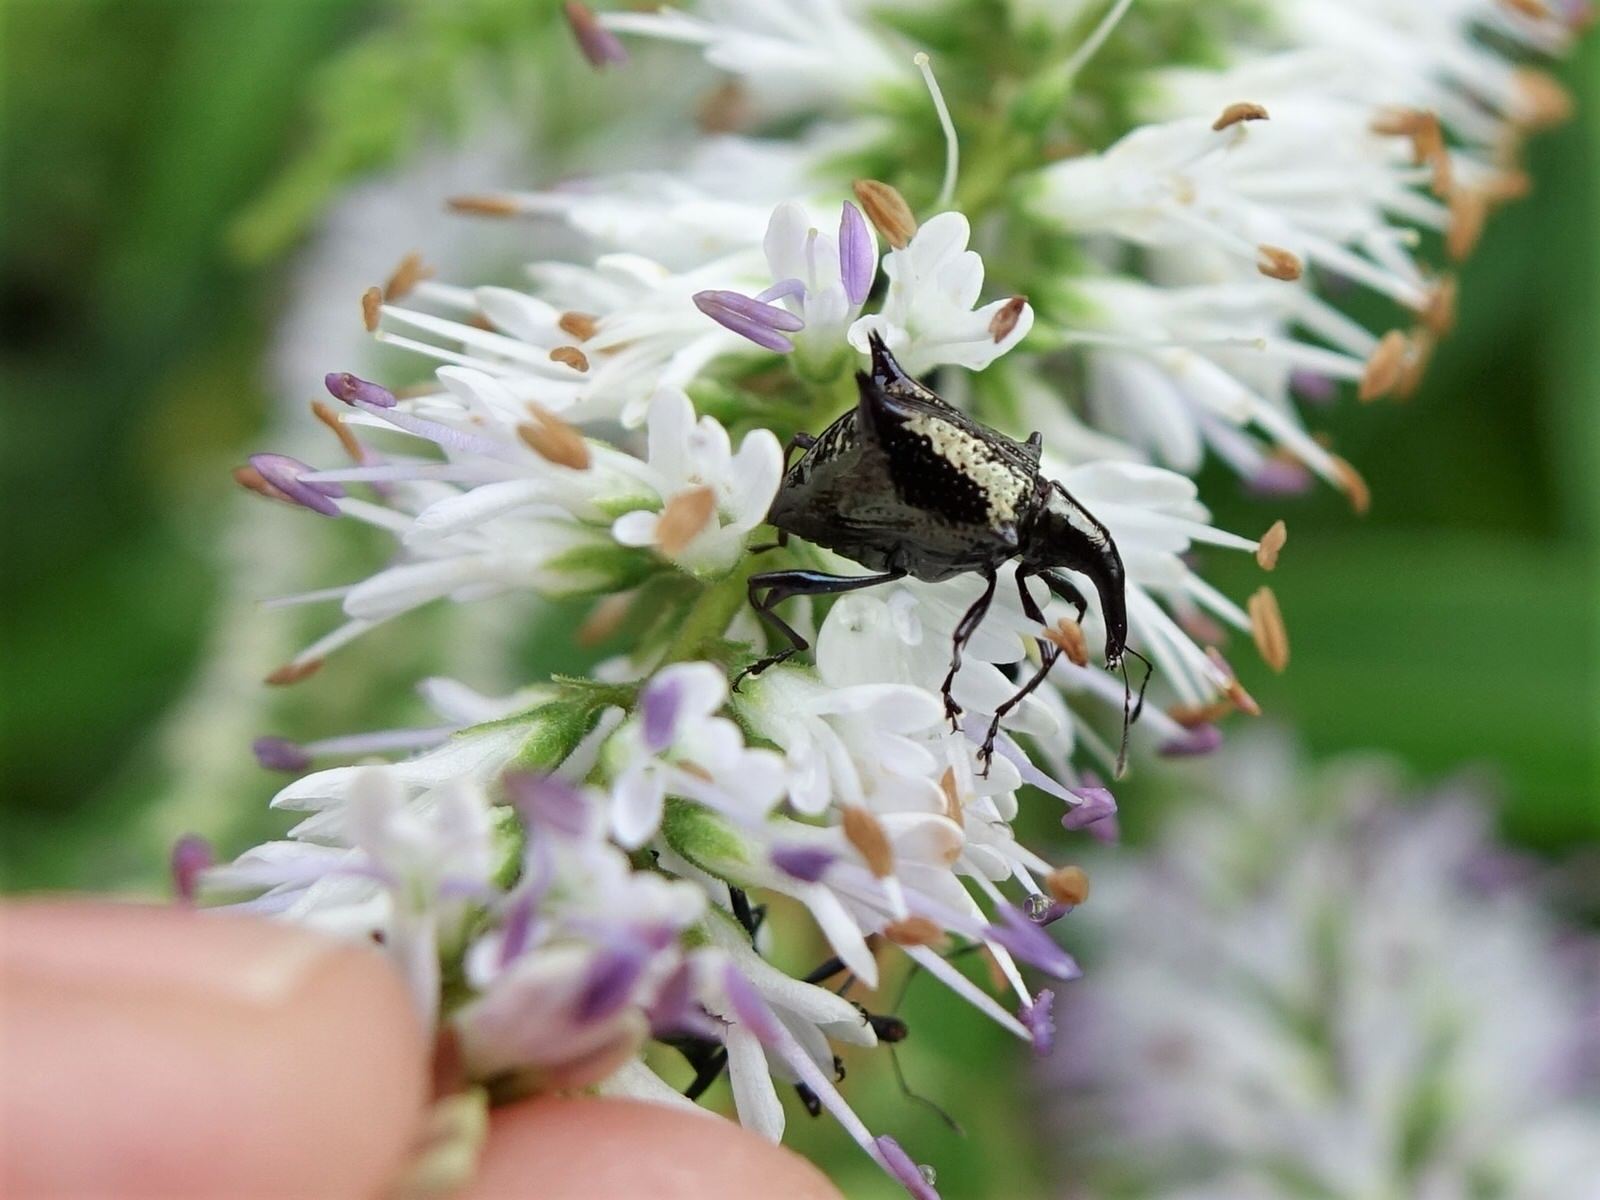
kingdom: Animalia
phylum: Arthropoda
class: Insecta
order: Coleoptera
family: Curculionidae
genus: Scolopterus
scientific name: Scolopterus aequus
